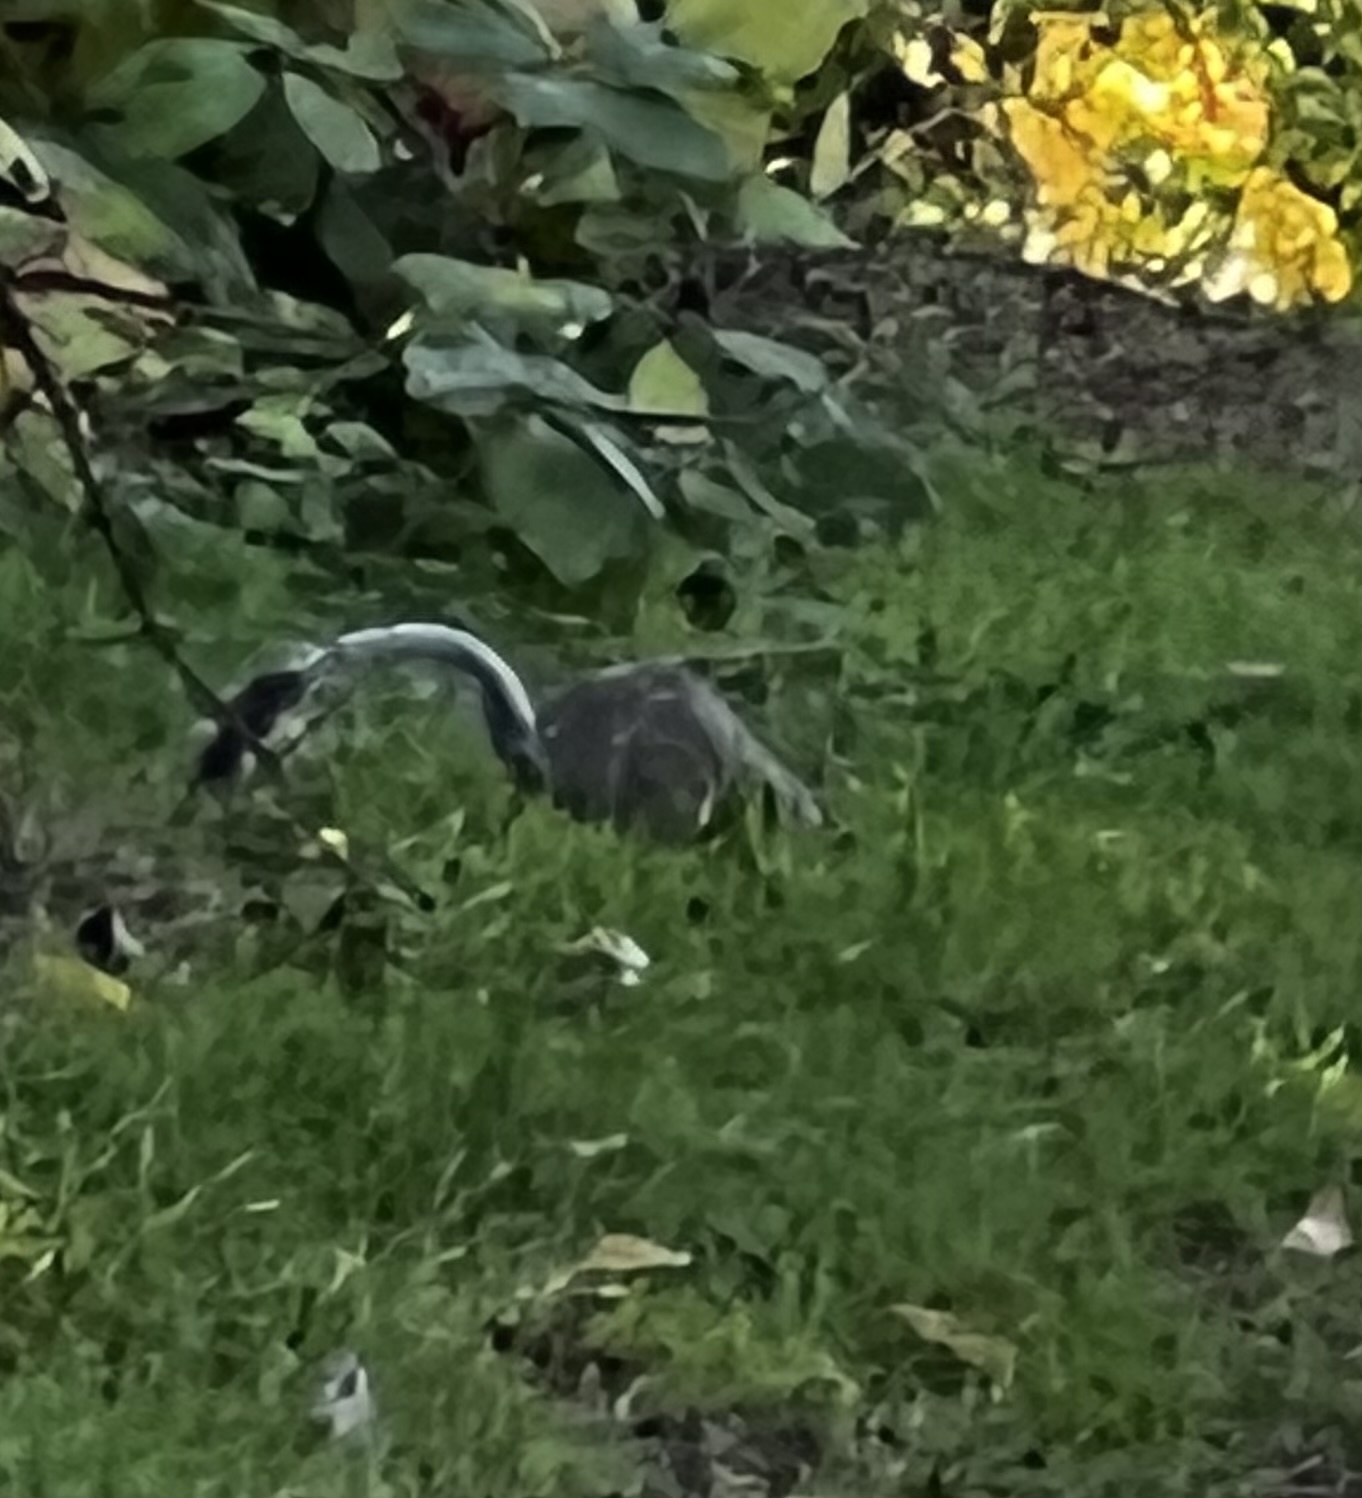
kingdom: Animalia
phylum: Chordata
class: Mammalia
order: Rodentia
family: Sciuridae
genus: Sciurus
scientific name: Sciurus carolinensis
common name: Eastern gray squirrel
